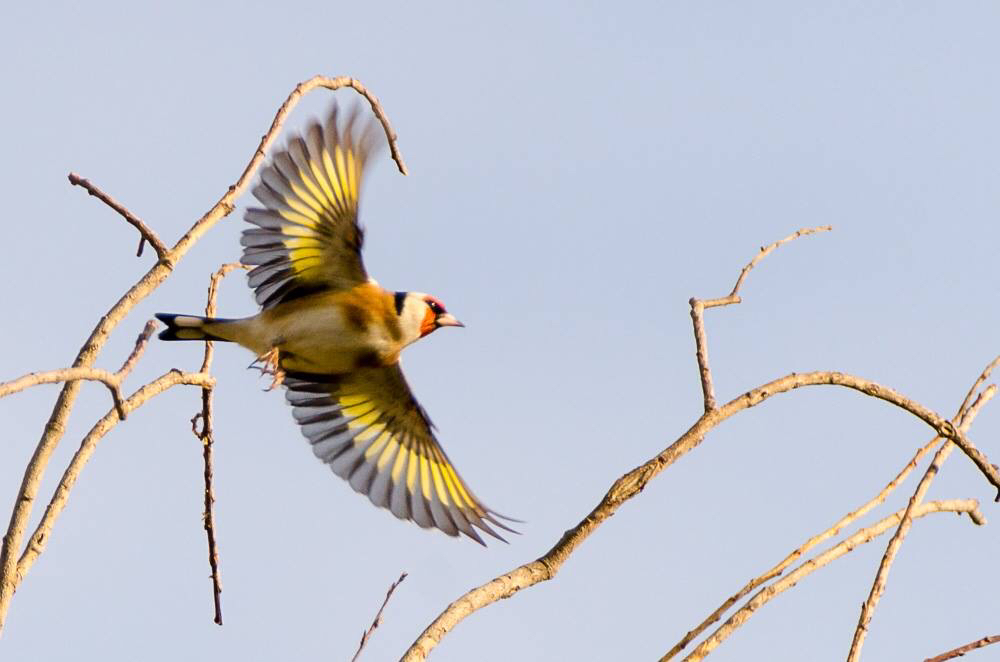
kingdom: Animalia
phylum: Chordata
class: Aves
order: Passeriformes
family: Fringillidae
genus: Carduelis
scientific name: Carduelis carduelis
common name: European goldfinch
